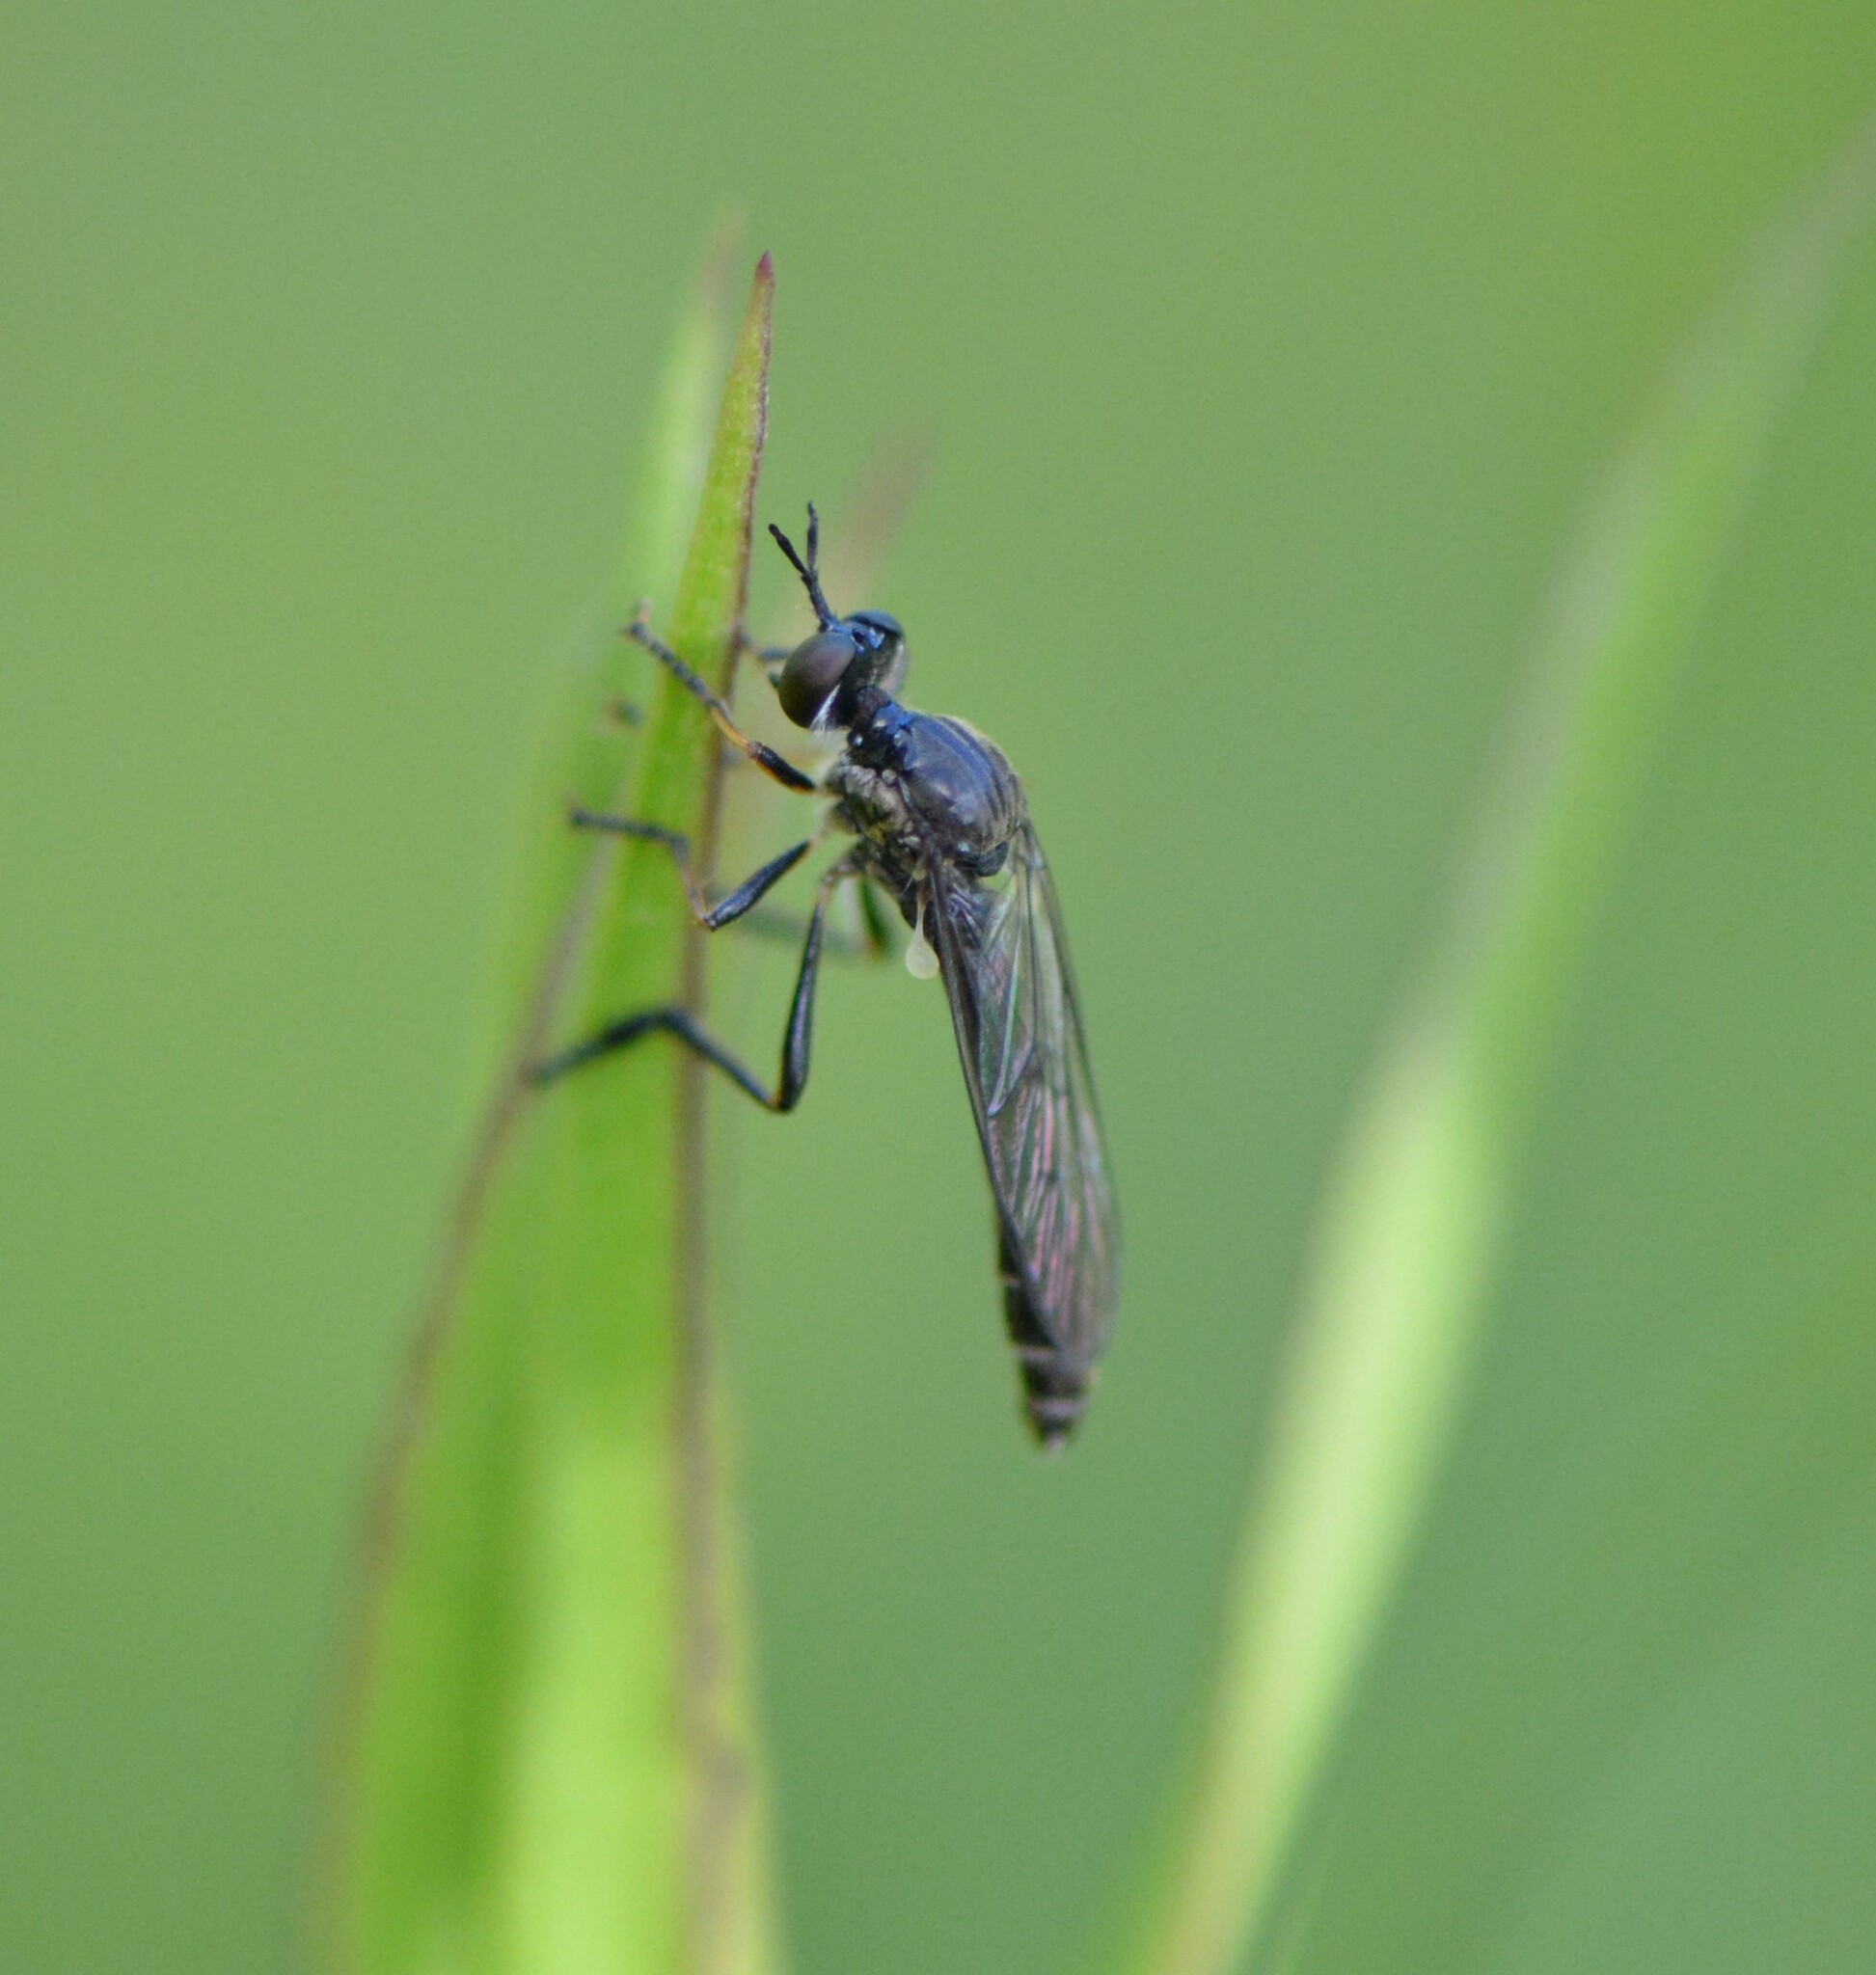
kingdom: Animalia
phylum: Arthropoda
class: Insecta
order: Diptera
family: Asilidae
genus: Dioctria
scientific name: Dioctria hyalipennis
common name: Stripe-legged robberfly
